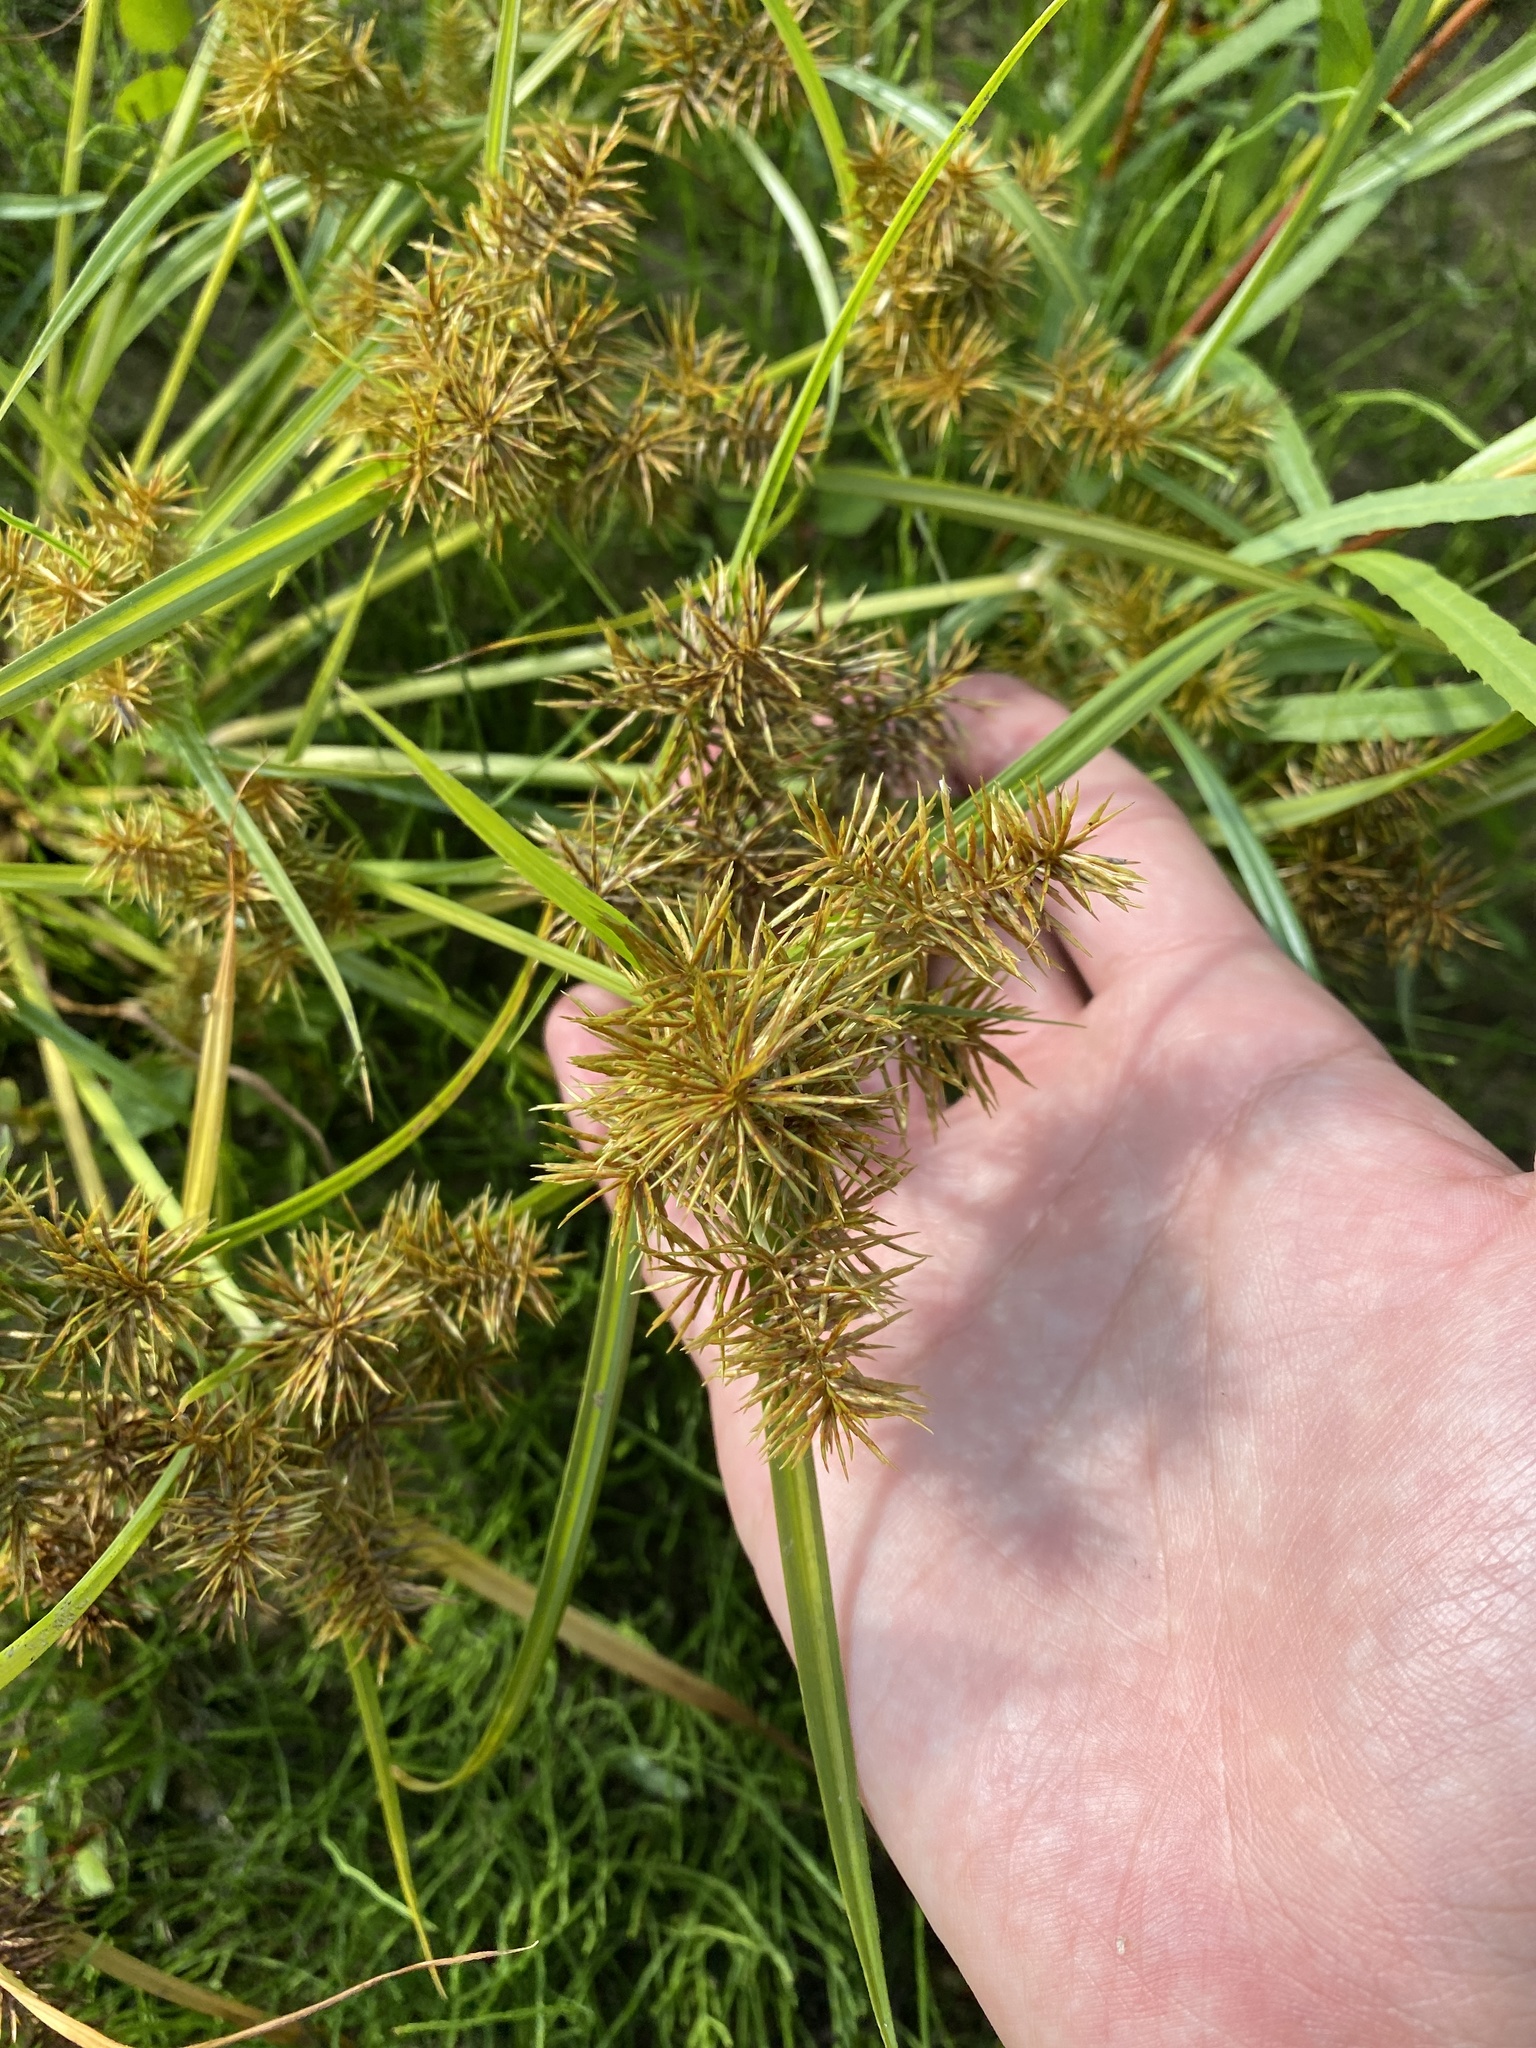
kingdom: Plantae
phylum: Tracheophyta
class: Liliopsida
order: Poales
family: Cyperaceae
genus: Cyperus
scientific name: Cyperus odoratus
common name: Fragrant flatsedge
